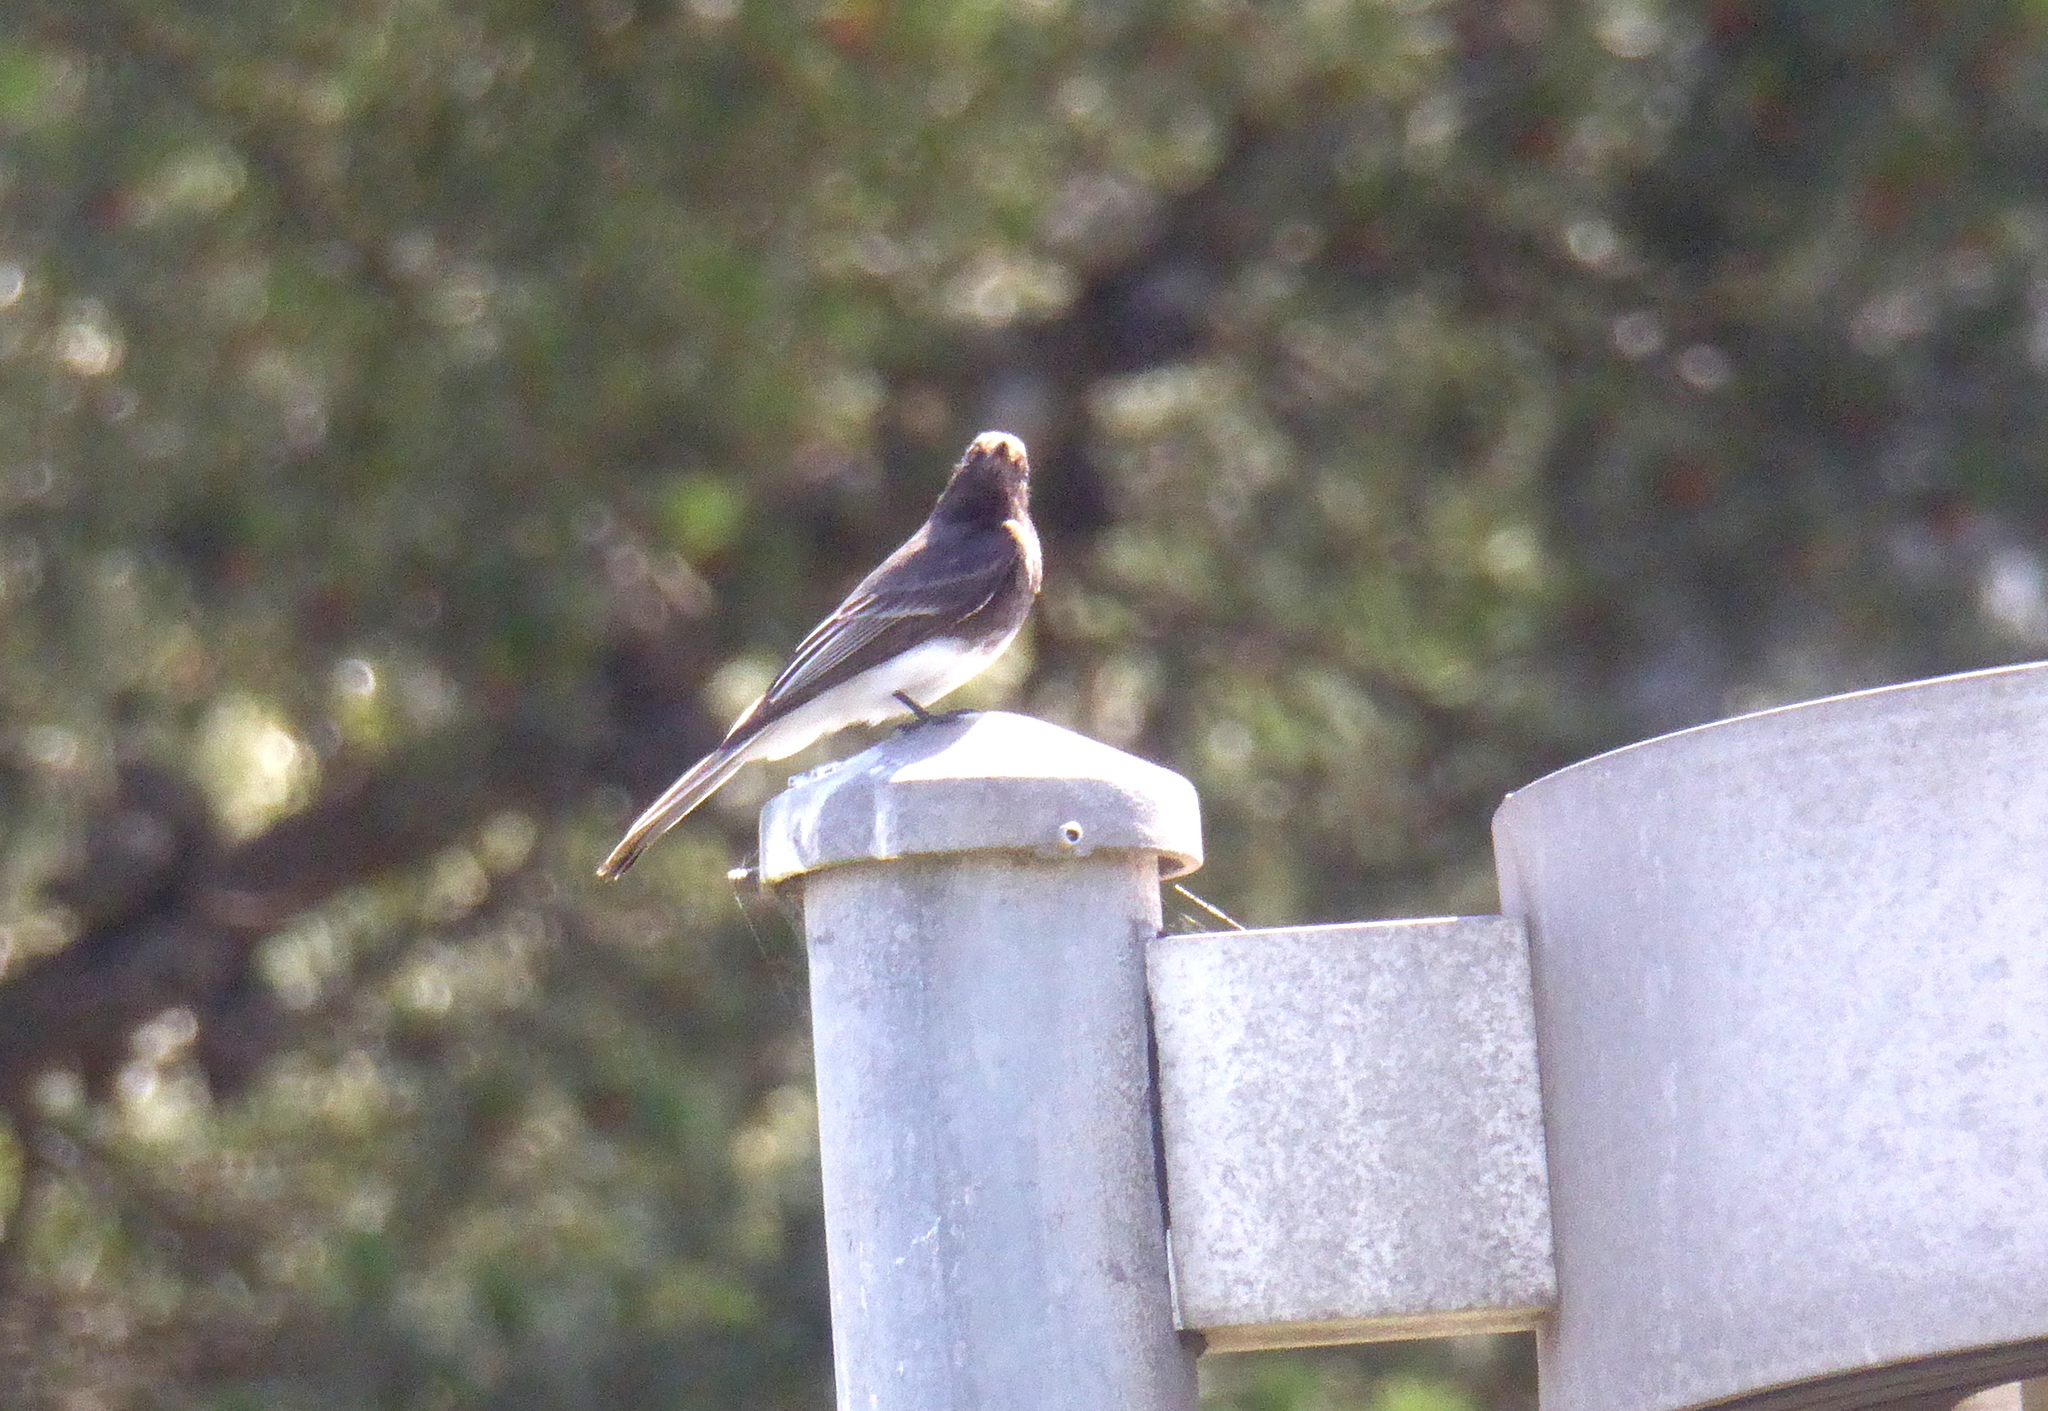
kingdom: Animalia
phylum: Chordata
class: Aves
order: Passeriformes
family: Tyrannidae
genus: Sayornis
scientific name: Sayornis nigricans
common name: Black phoebe
